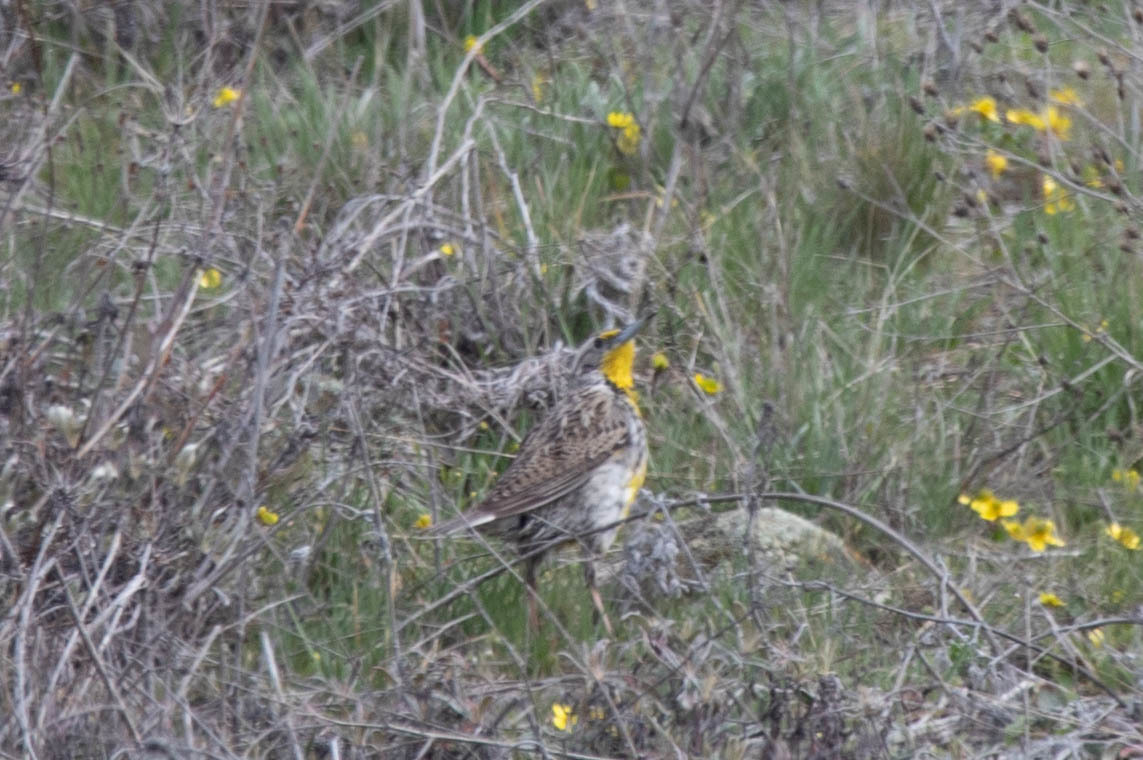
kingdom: Animalia
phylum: Chordata
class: Aves
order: Passeriformes
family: Icteridae
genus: Sturnella
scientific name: Sturnella neglecta
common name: Western meadowlark
